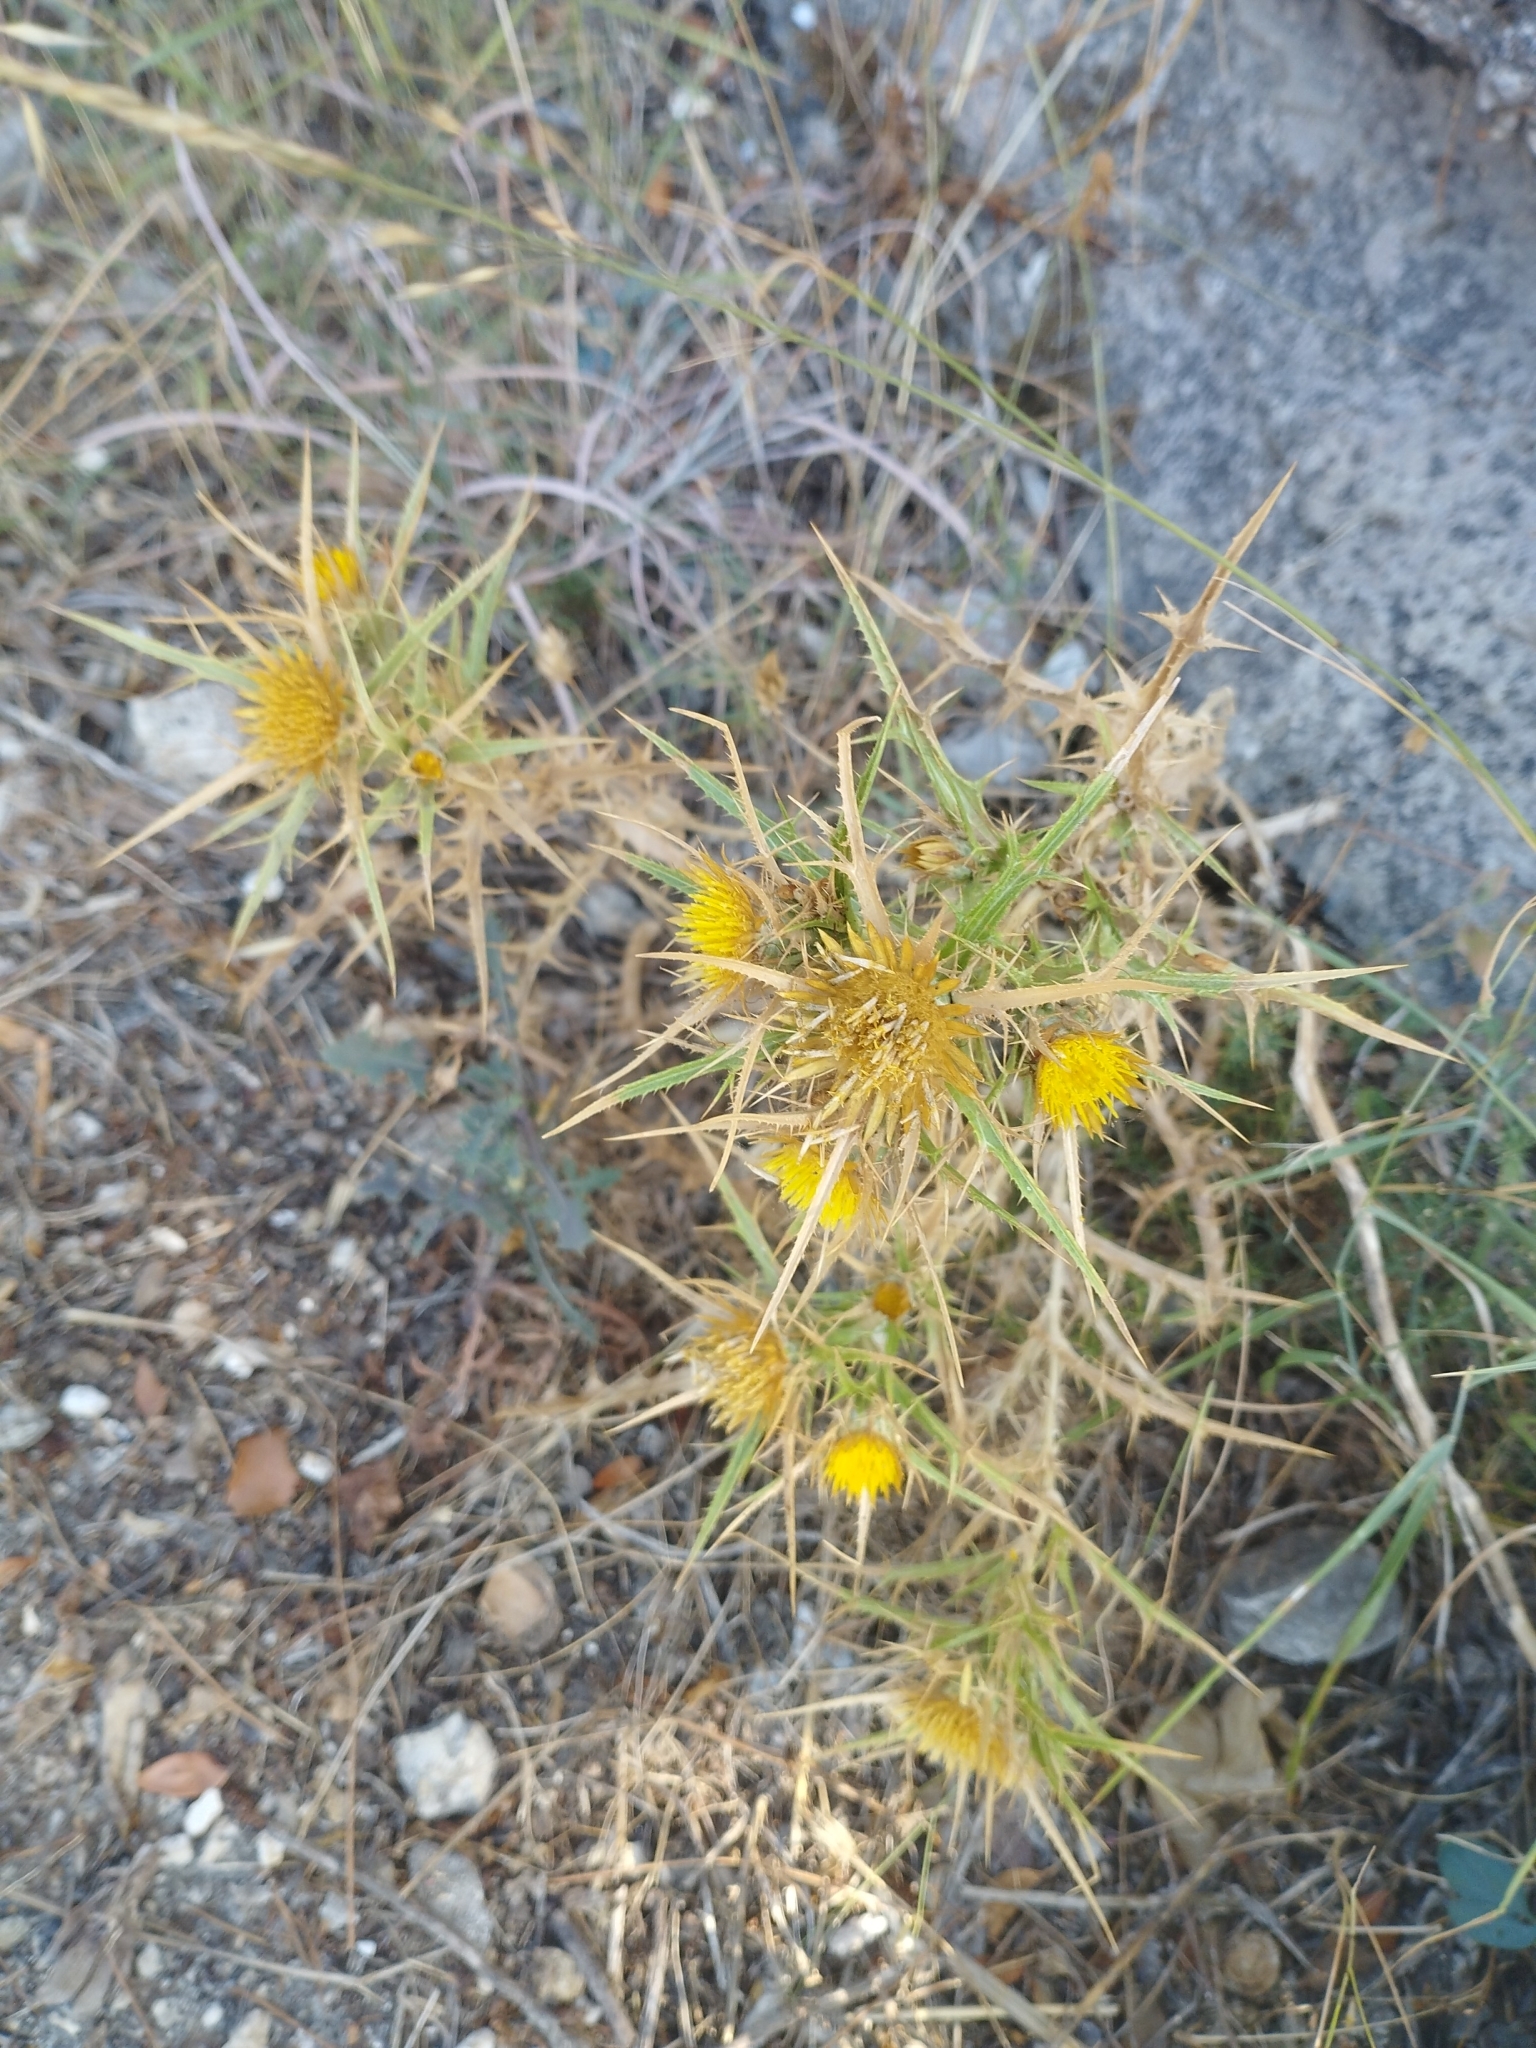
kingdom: Plantae
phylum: Tracheophyta
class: Magnoliopsida
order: Asterales
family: Asteraceae
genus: Carlina
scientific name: Carlina graeca
